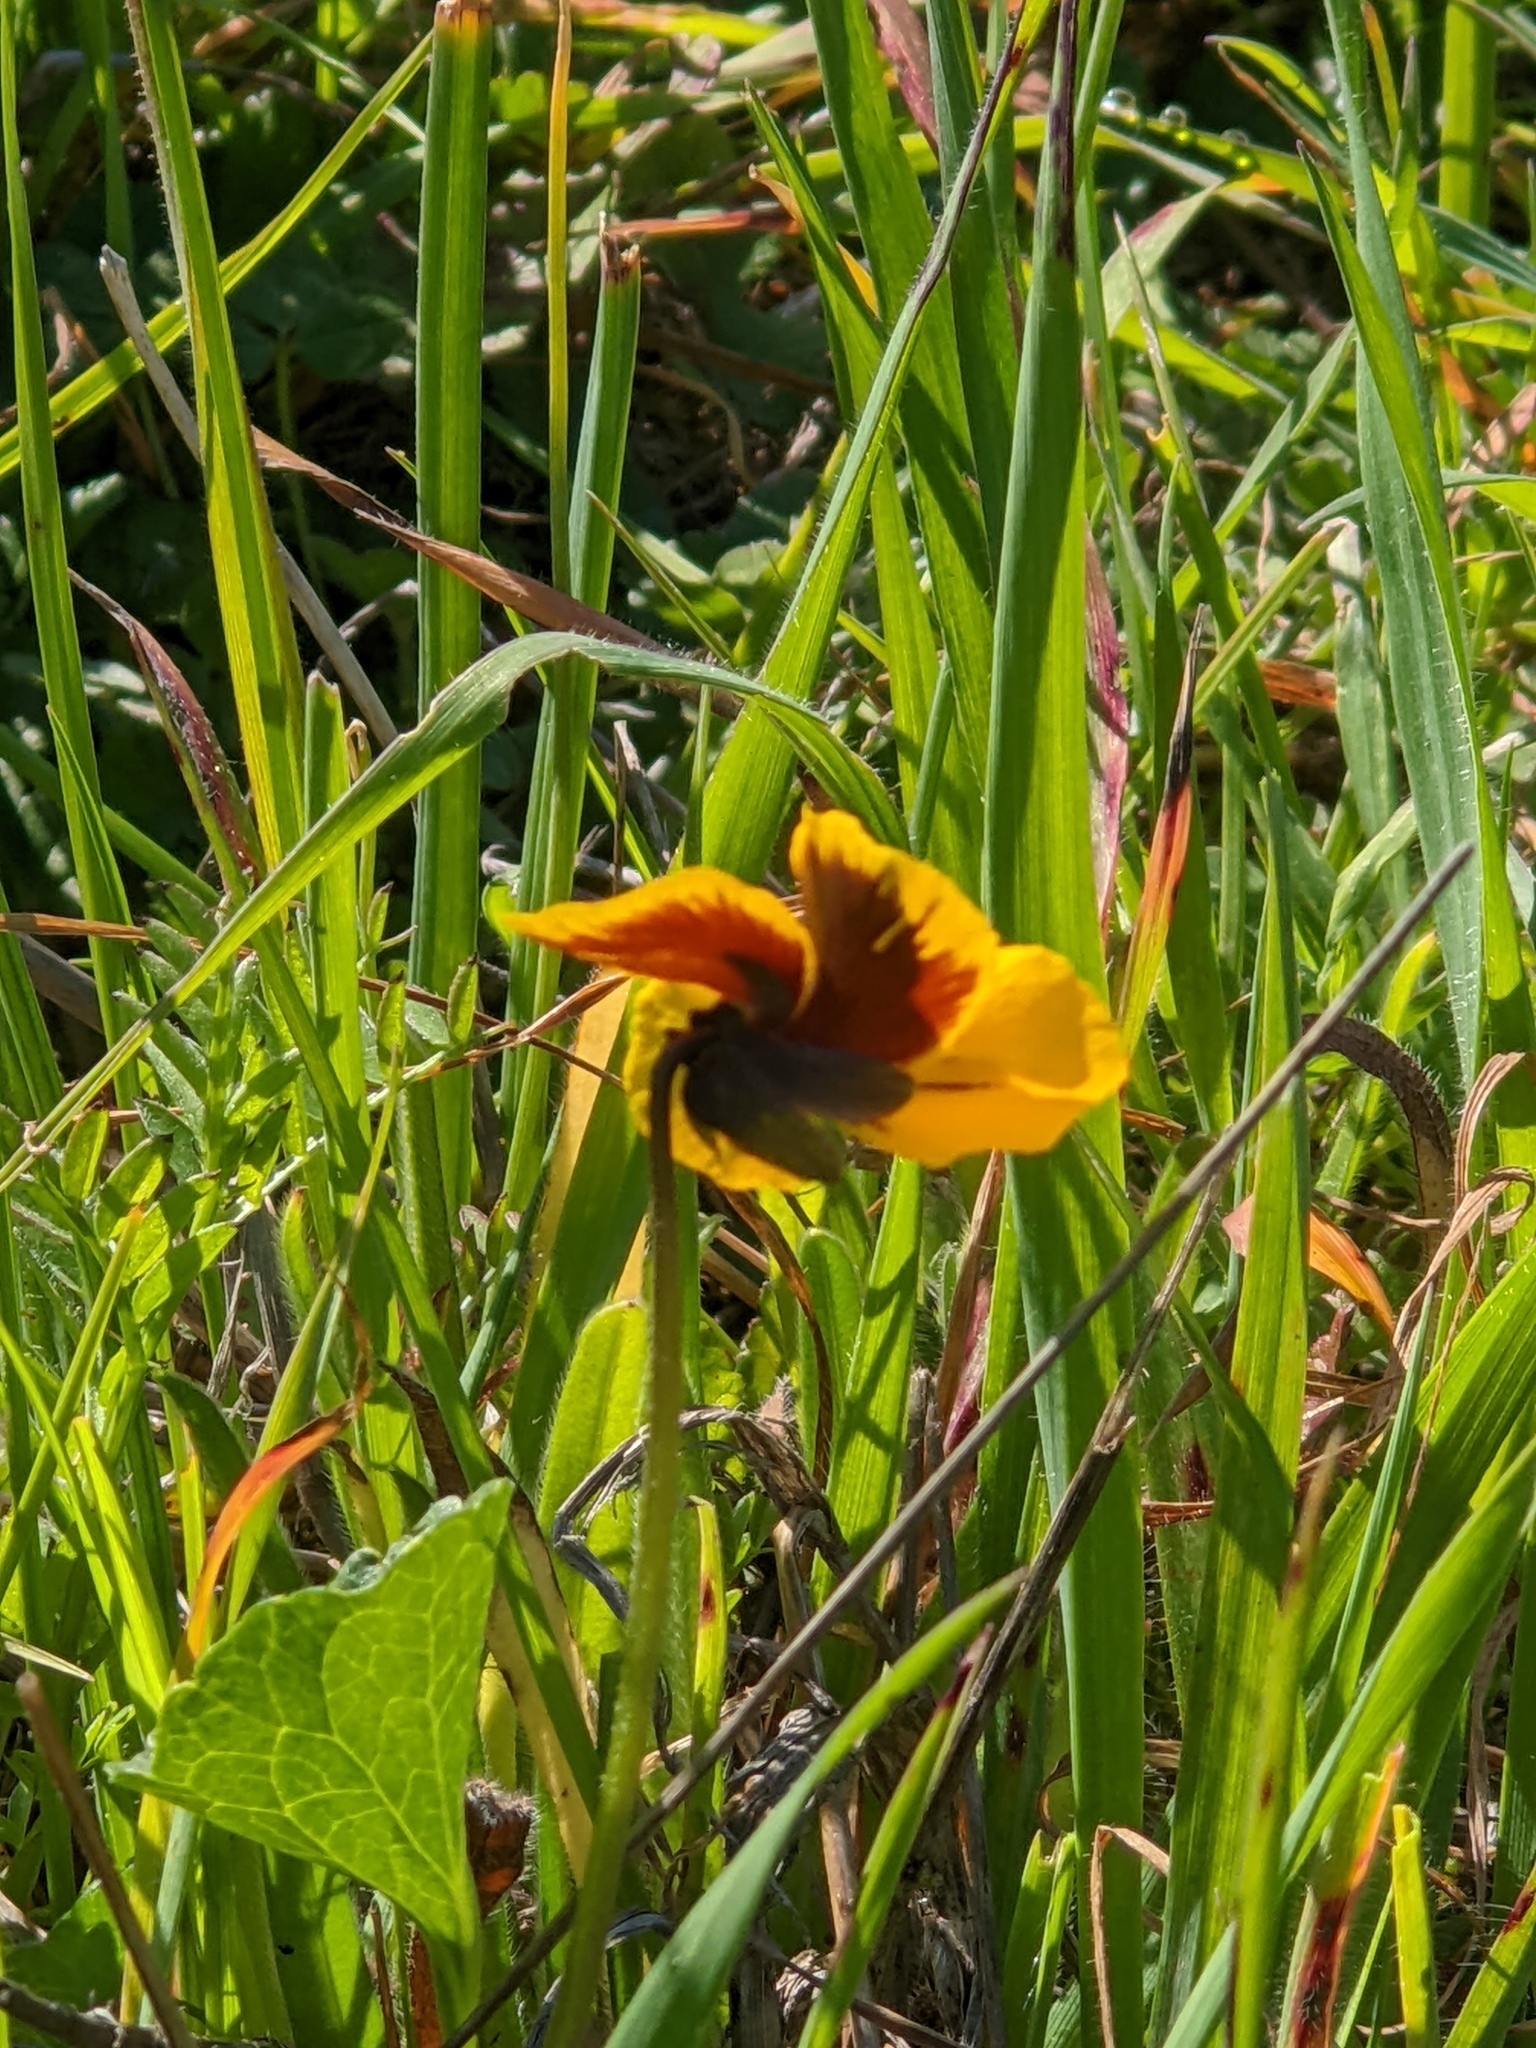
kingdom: Plantae
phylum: Tracheophyta
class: Magnoliopsida
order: Malpighiales
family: Violaceae
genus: Viola
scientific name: Viola pedunculata
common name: California golden violet
